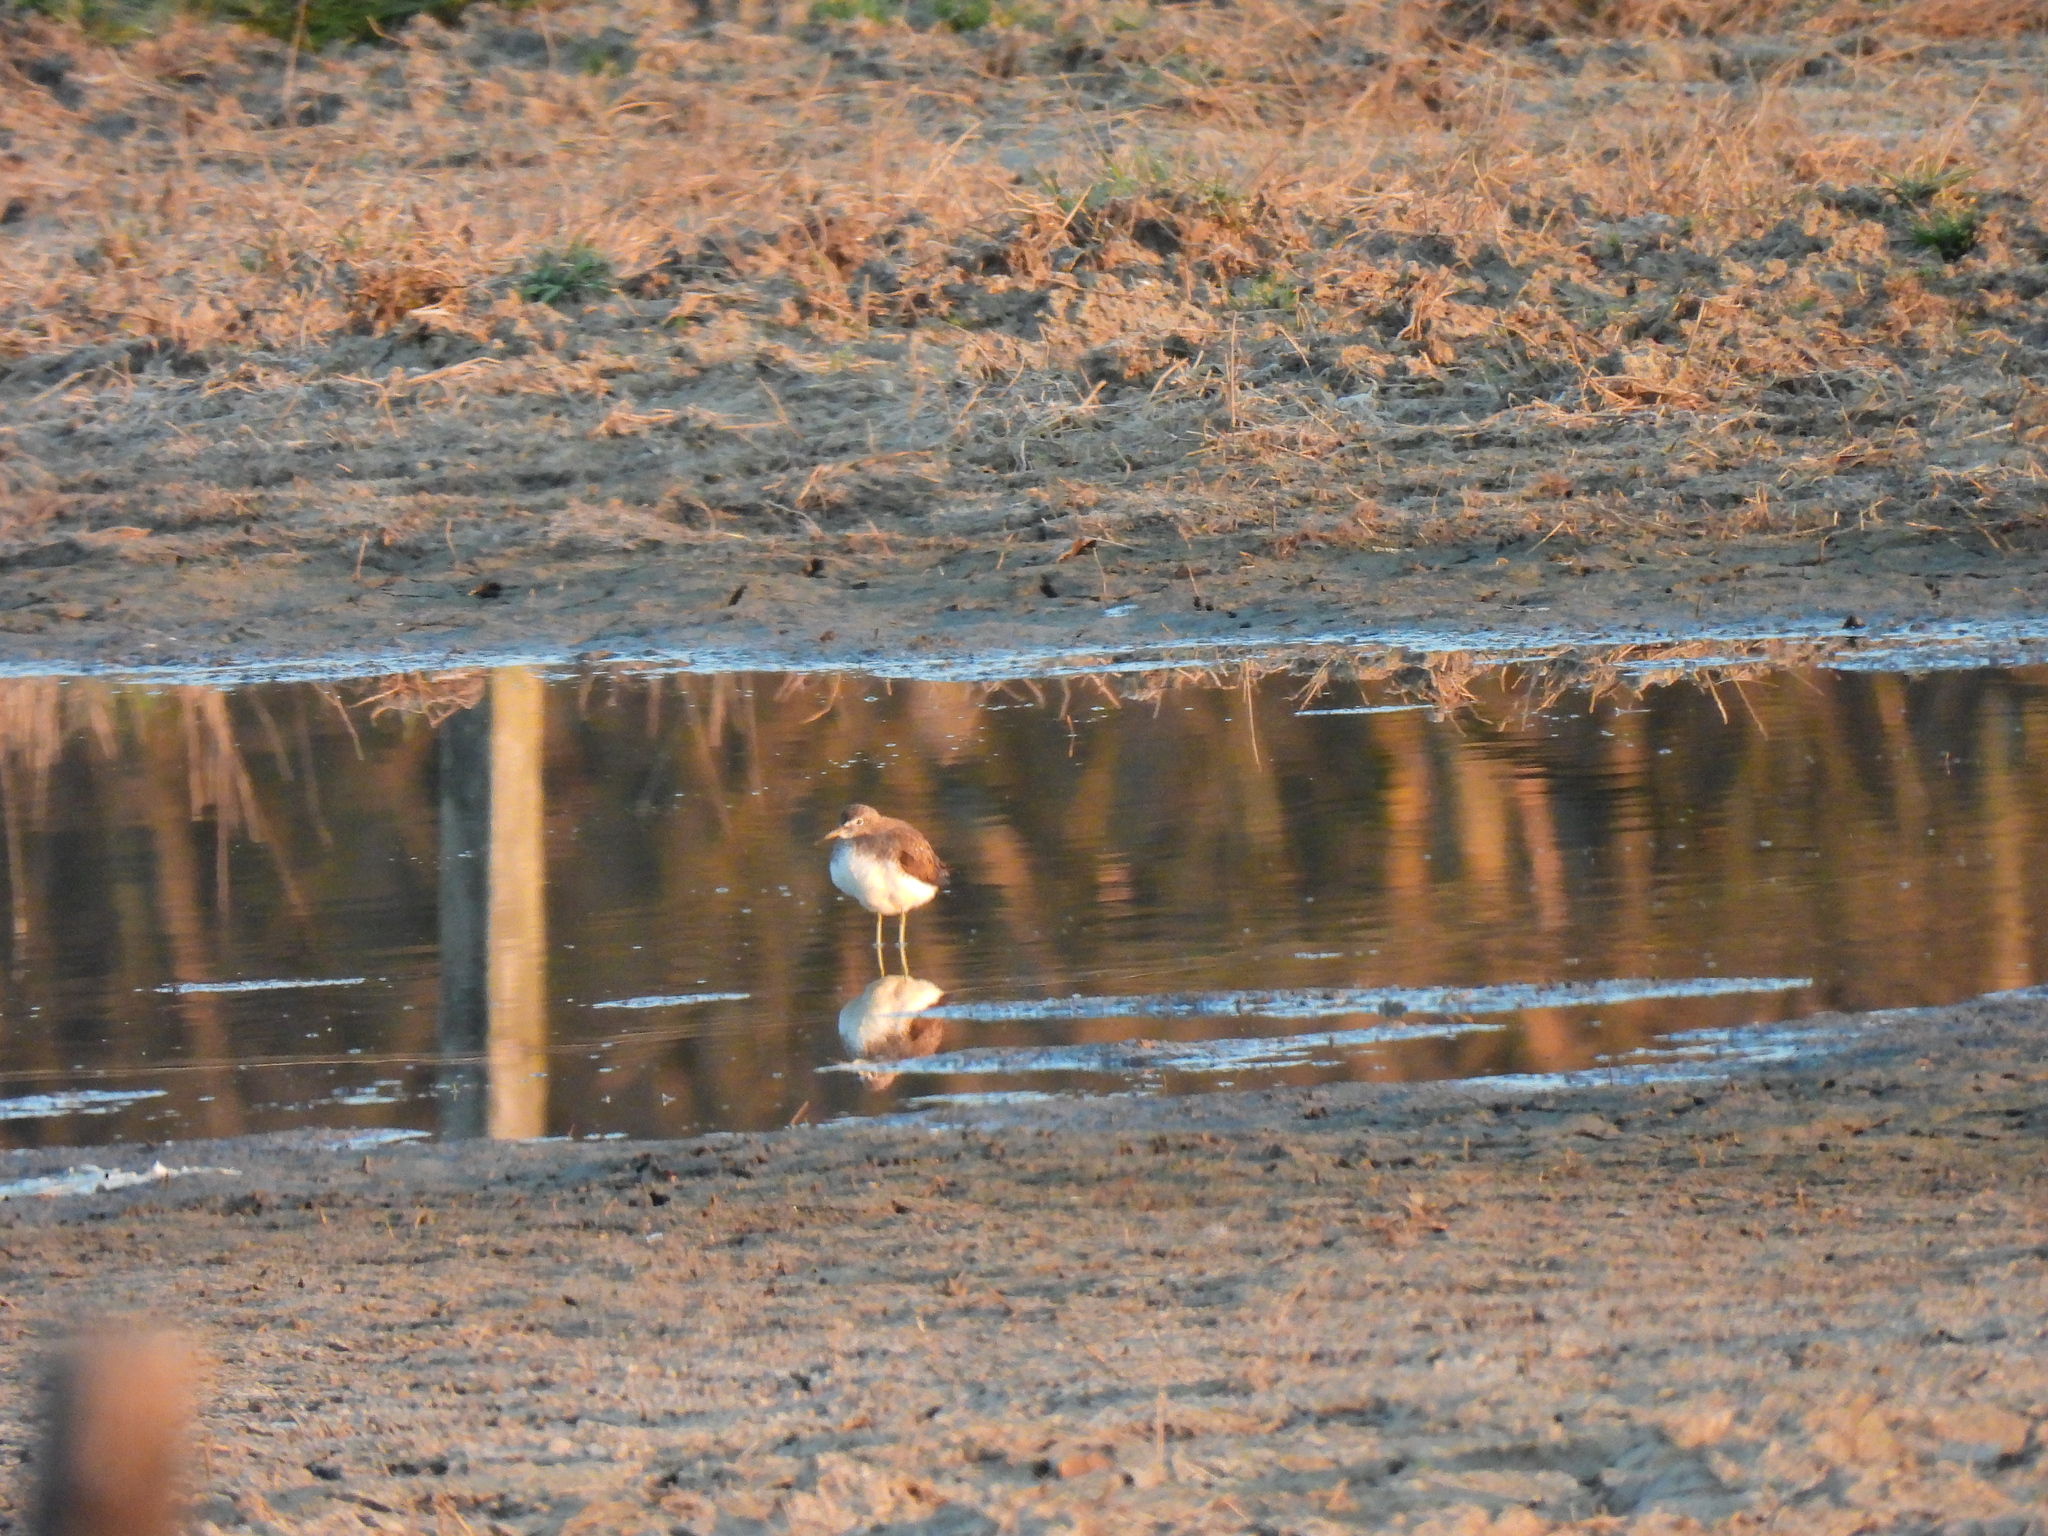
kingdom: Animalia
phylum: Chordata
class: Aves
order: Charadriiformes
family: Scolopacidae
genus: Tringa
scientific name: Tringa ochropus
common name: Green sandpiper
